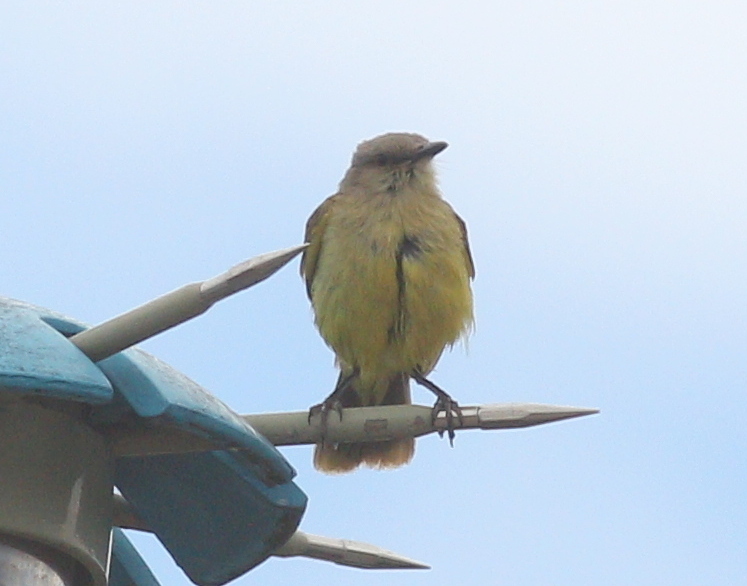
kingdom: Animalia
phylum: Chordata
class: Aves
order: Passeriformes
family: Tyrannidae
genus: Machetornis
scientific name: Machetornis rixosa
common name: Cattle tyrant
